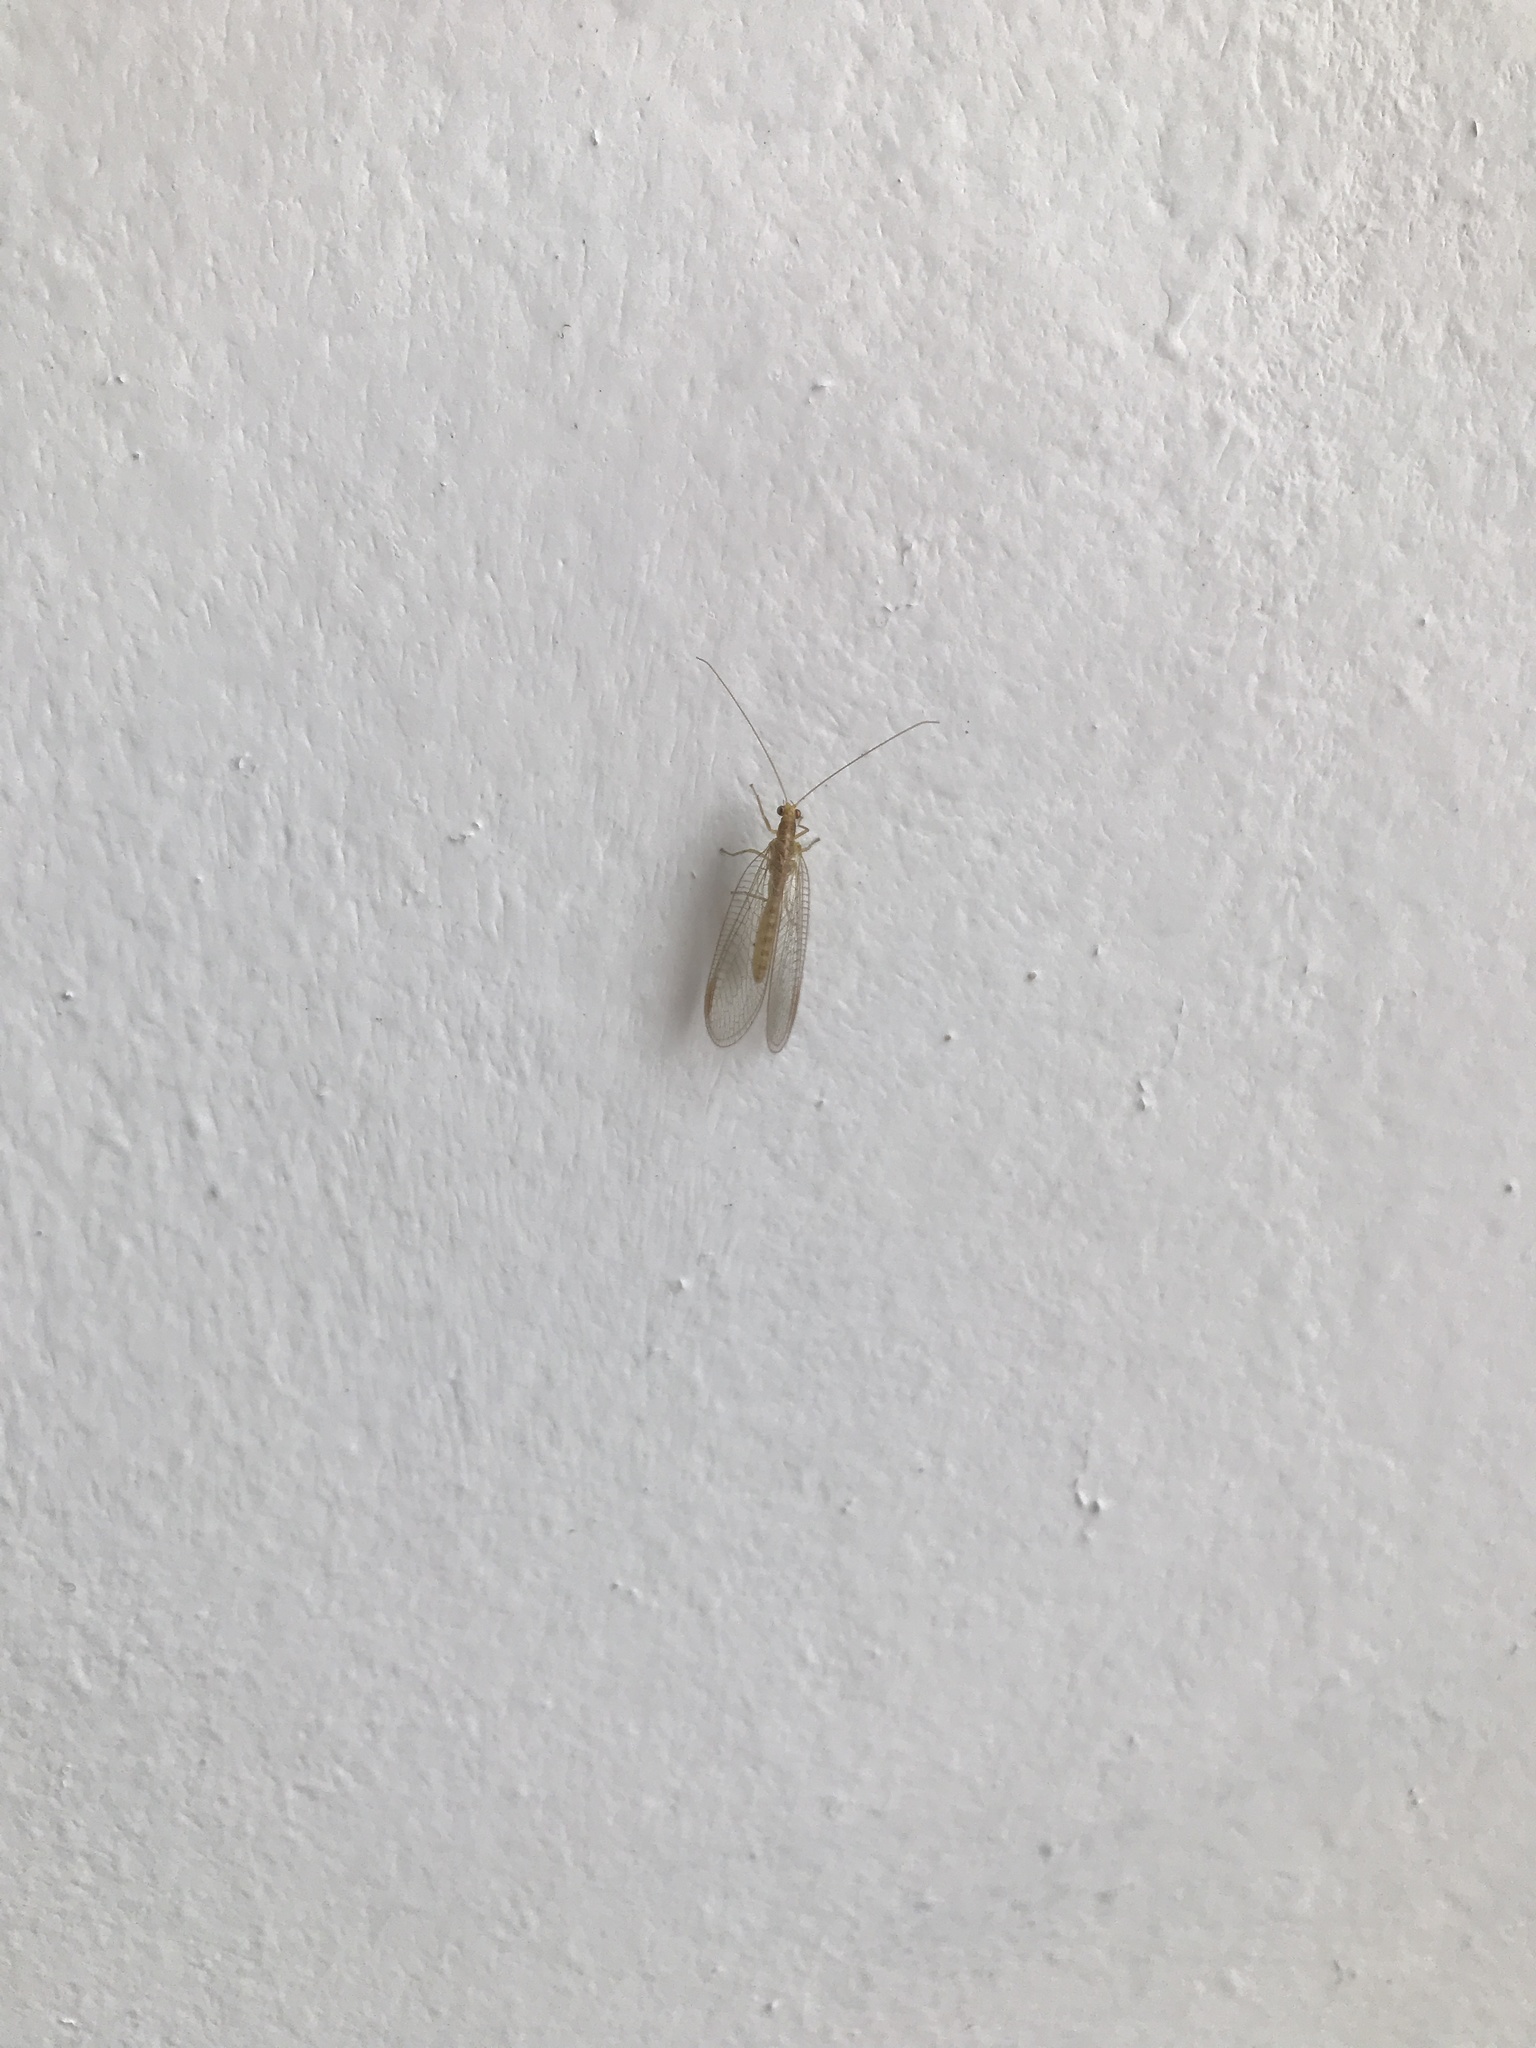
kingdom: Animalia
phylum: Arthropoda
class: Insecta
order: Neuroptera
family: Chrysopidae
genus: Chrysoperla
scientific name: Chrysoperla
